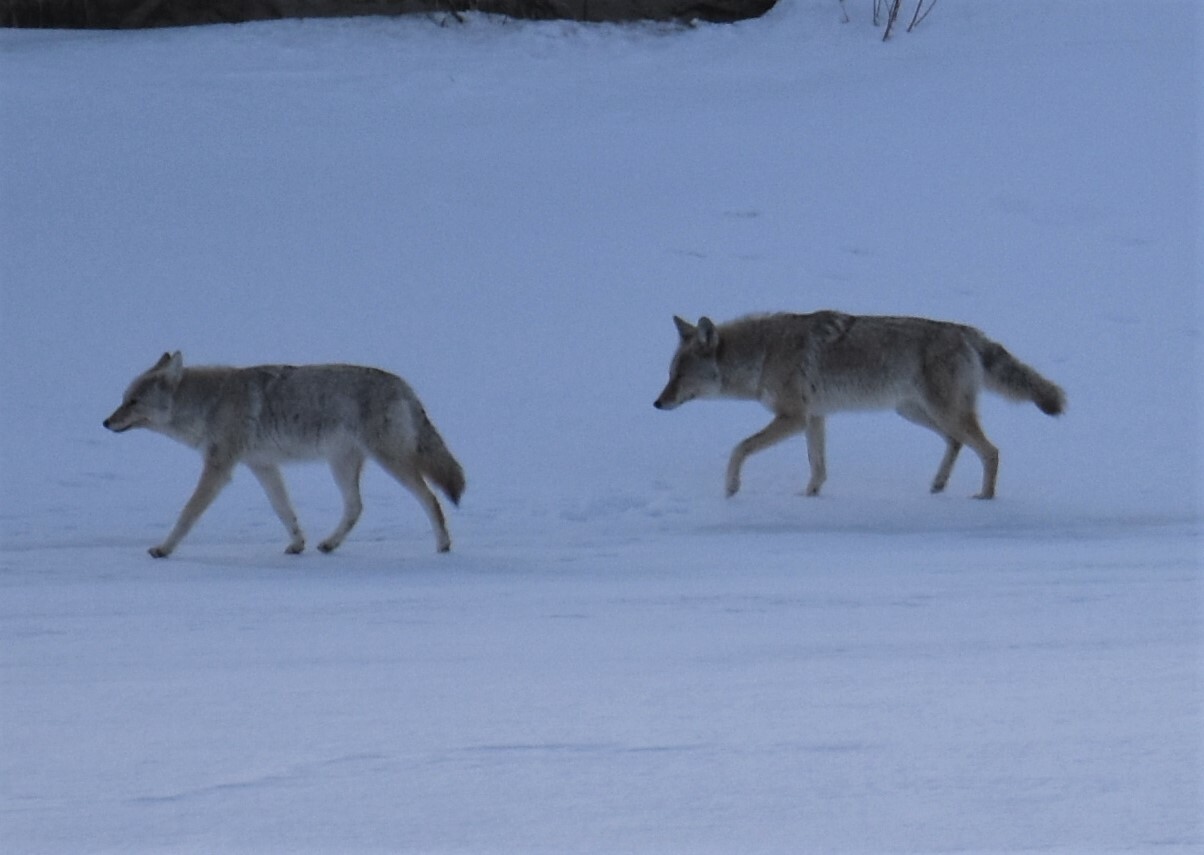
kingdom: Animalia
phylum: Chordata
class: Mammalia
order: Carnivora
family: Canidae
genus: Canis
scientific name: Canis latrans
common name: Coyote
